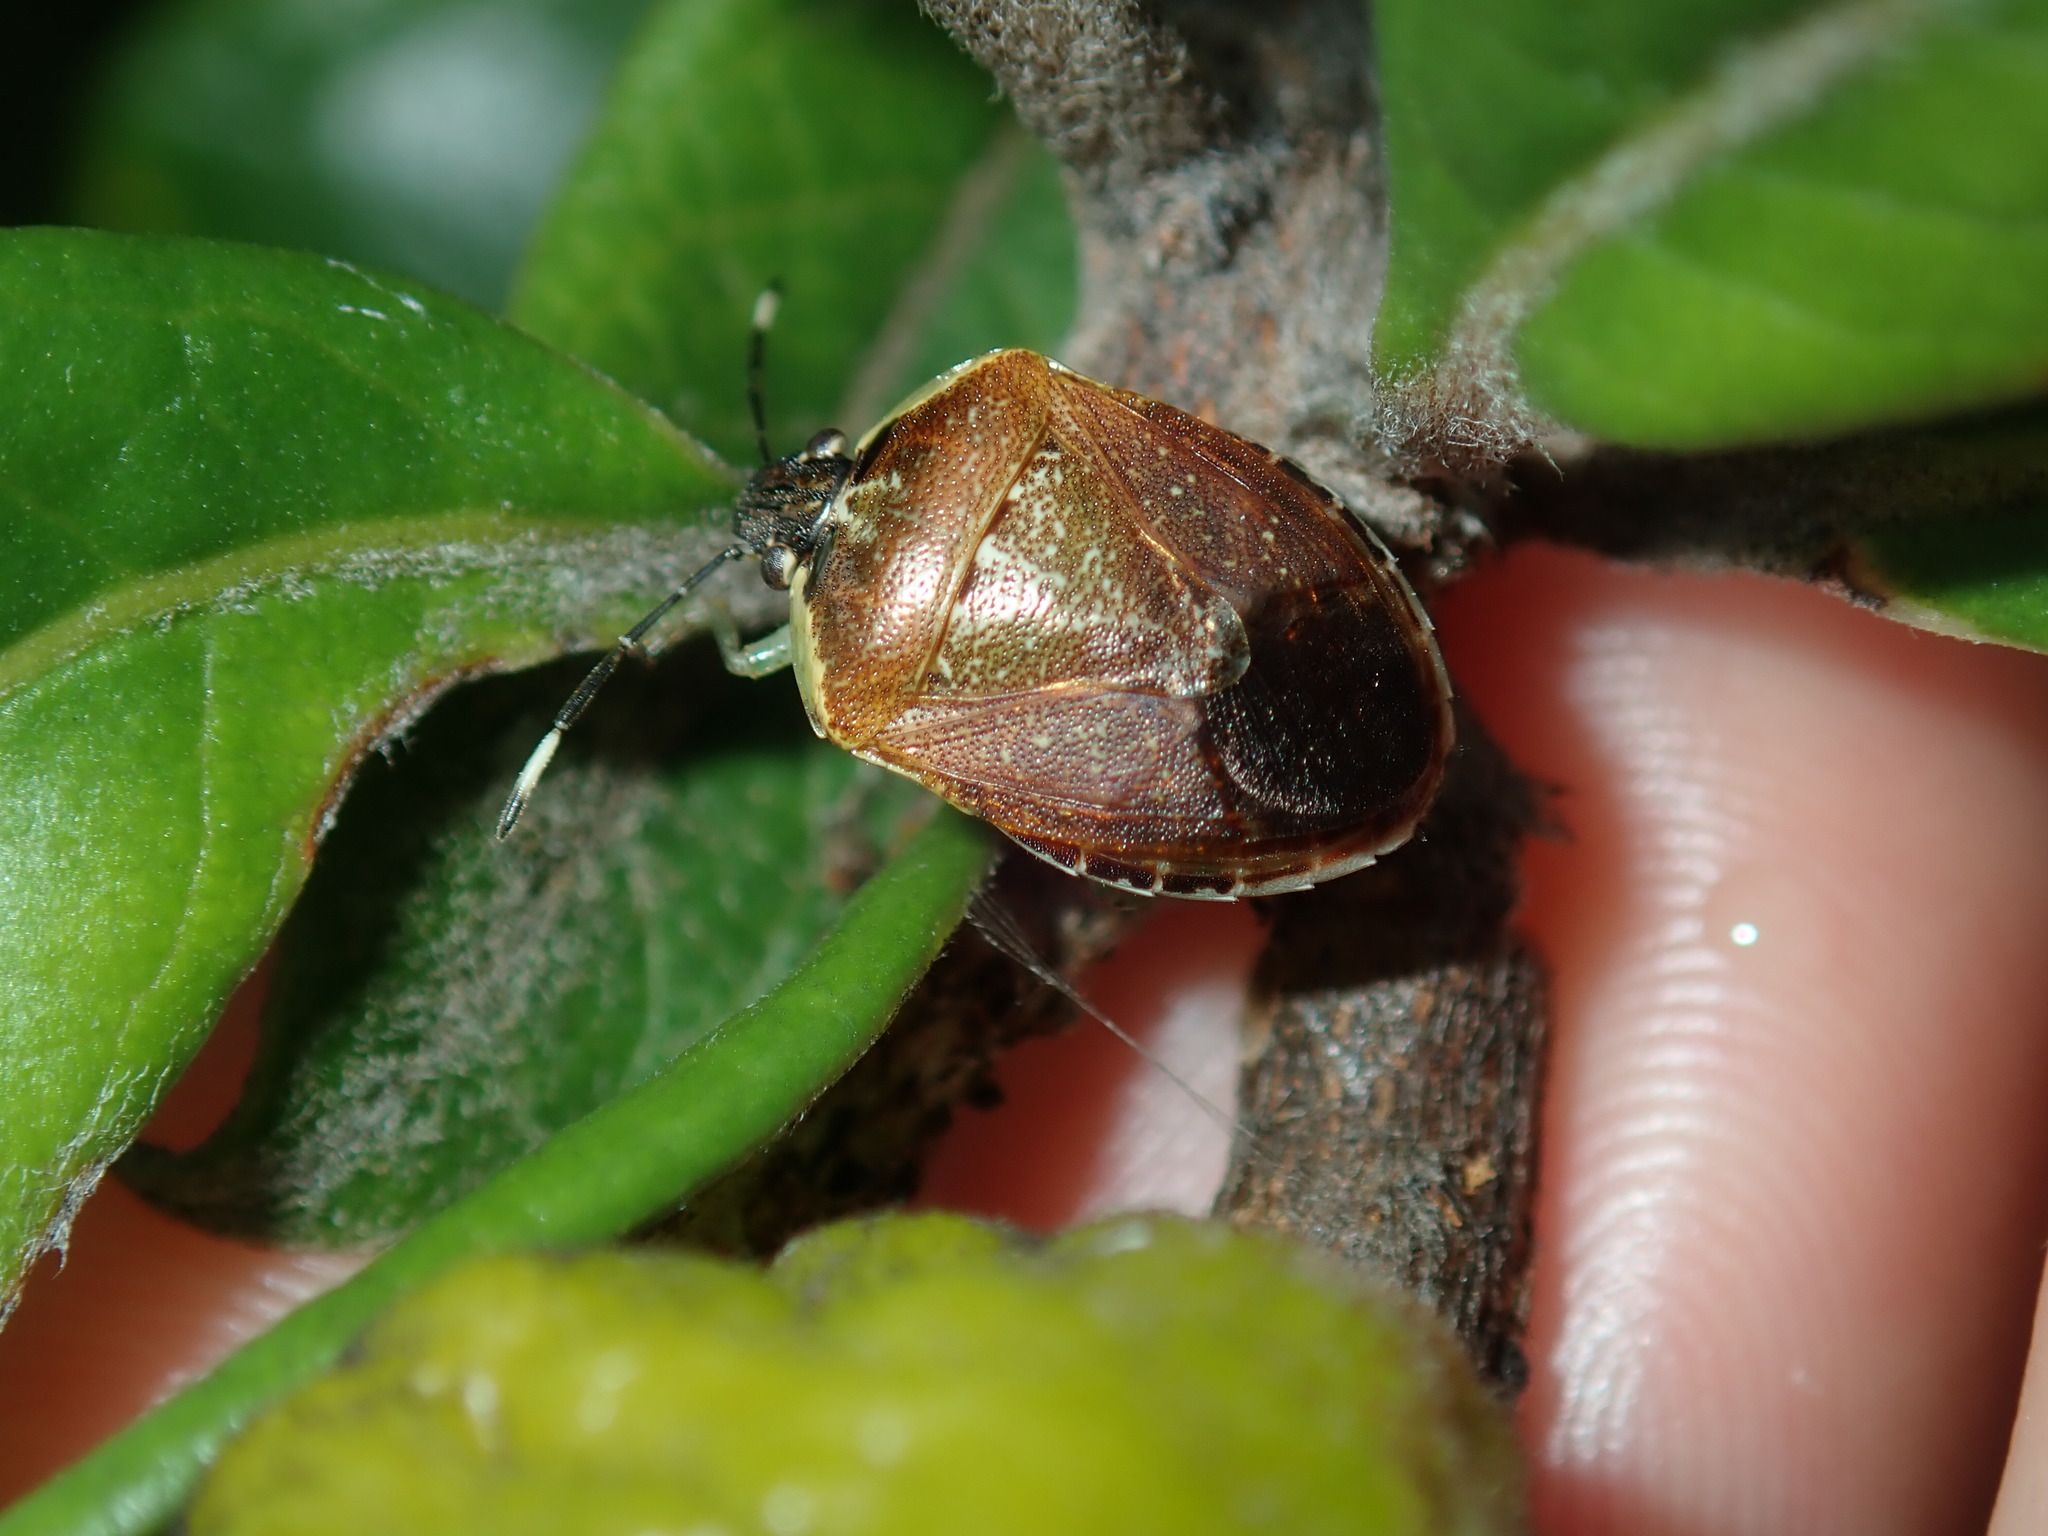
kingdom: Animalia
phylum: Arthropoda
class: Insecta
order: Hemiptera
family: Pentatomidae
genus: Monteithiella
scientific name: Monteithiella
